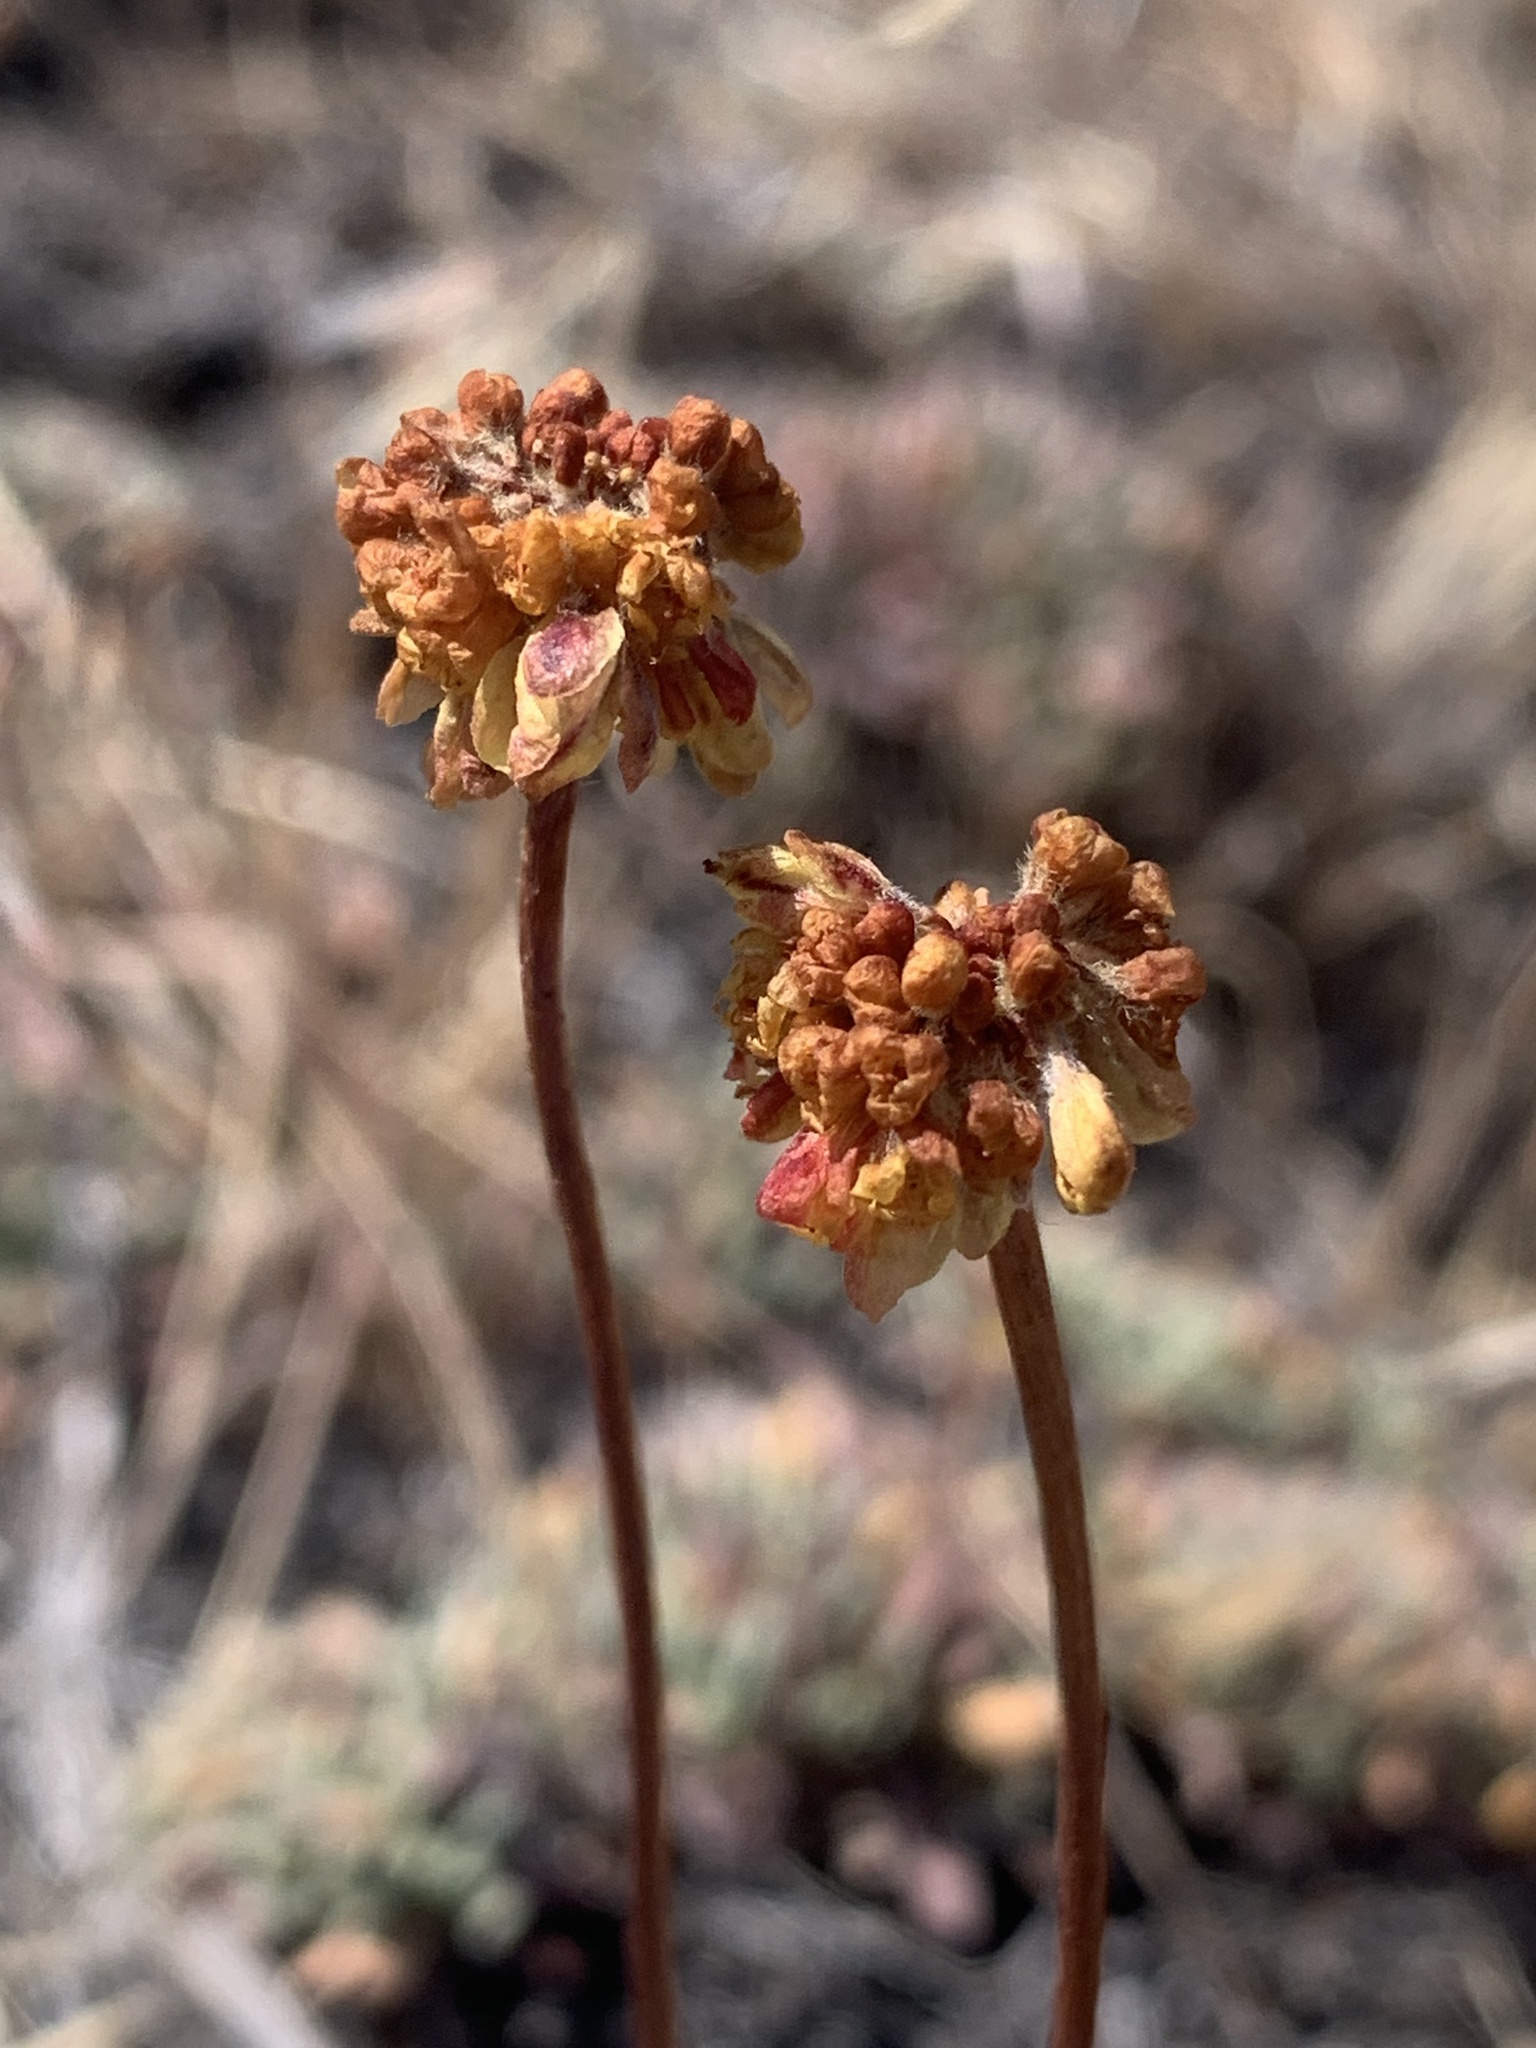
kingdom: Plantae
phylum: Tracheophyta
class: Magnoliopsida
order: Caryophyllales
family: Polygonaceae
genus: Eriogonum
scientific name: Eriogonum caespitosum
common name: Matted wild buckwheat
